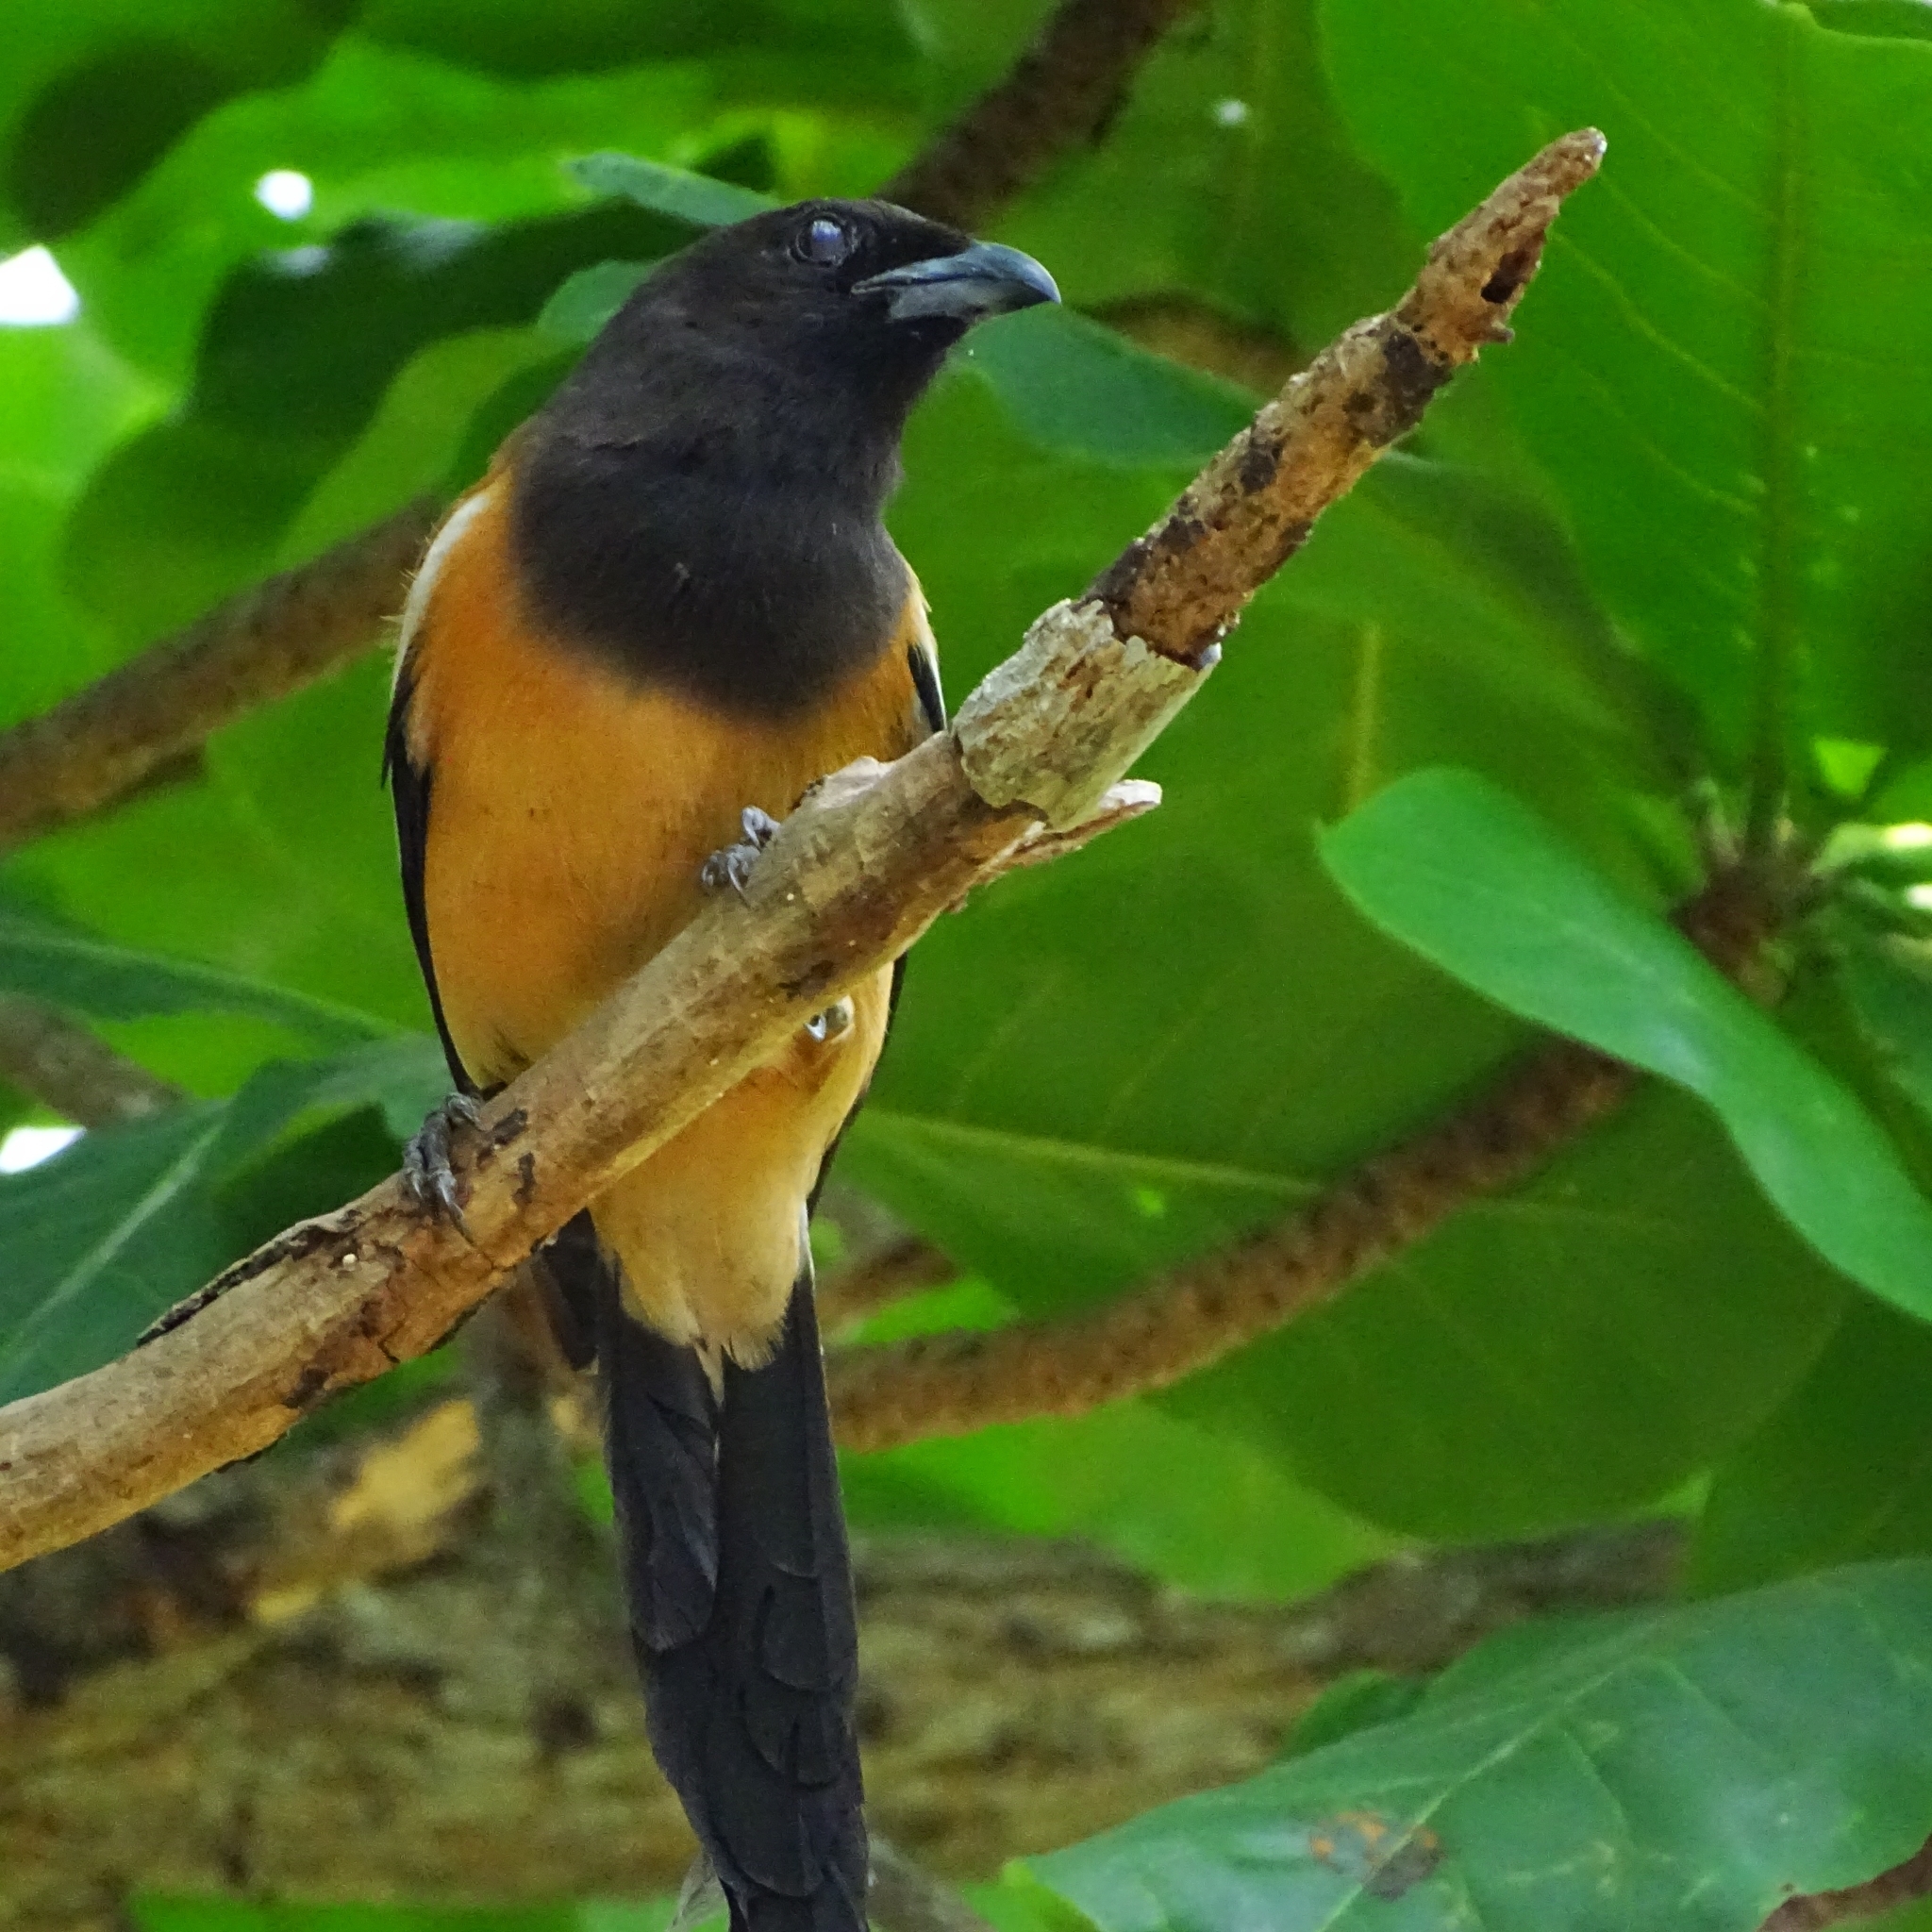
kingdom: Animalia
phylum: Chordata
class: Aves
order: Passeriformes
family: Corvidae
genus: Dendrocitta
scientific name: Dendrocitta vagabunda
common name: Rufous treepie
